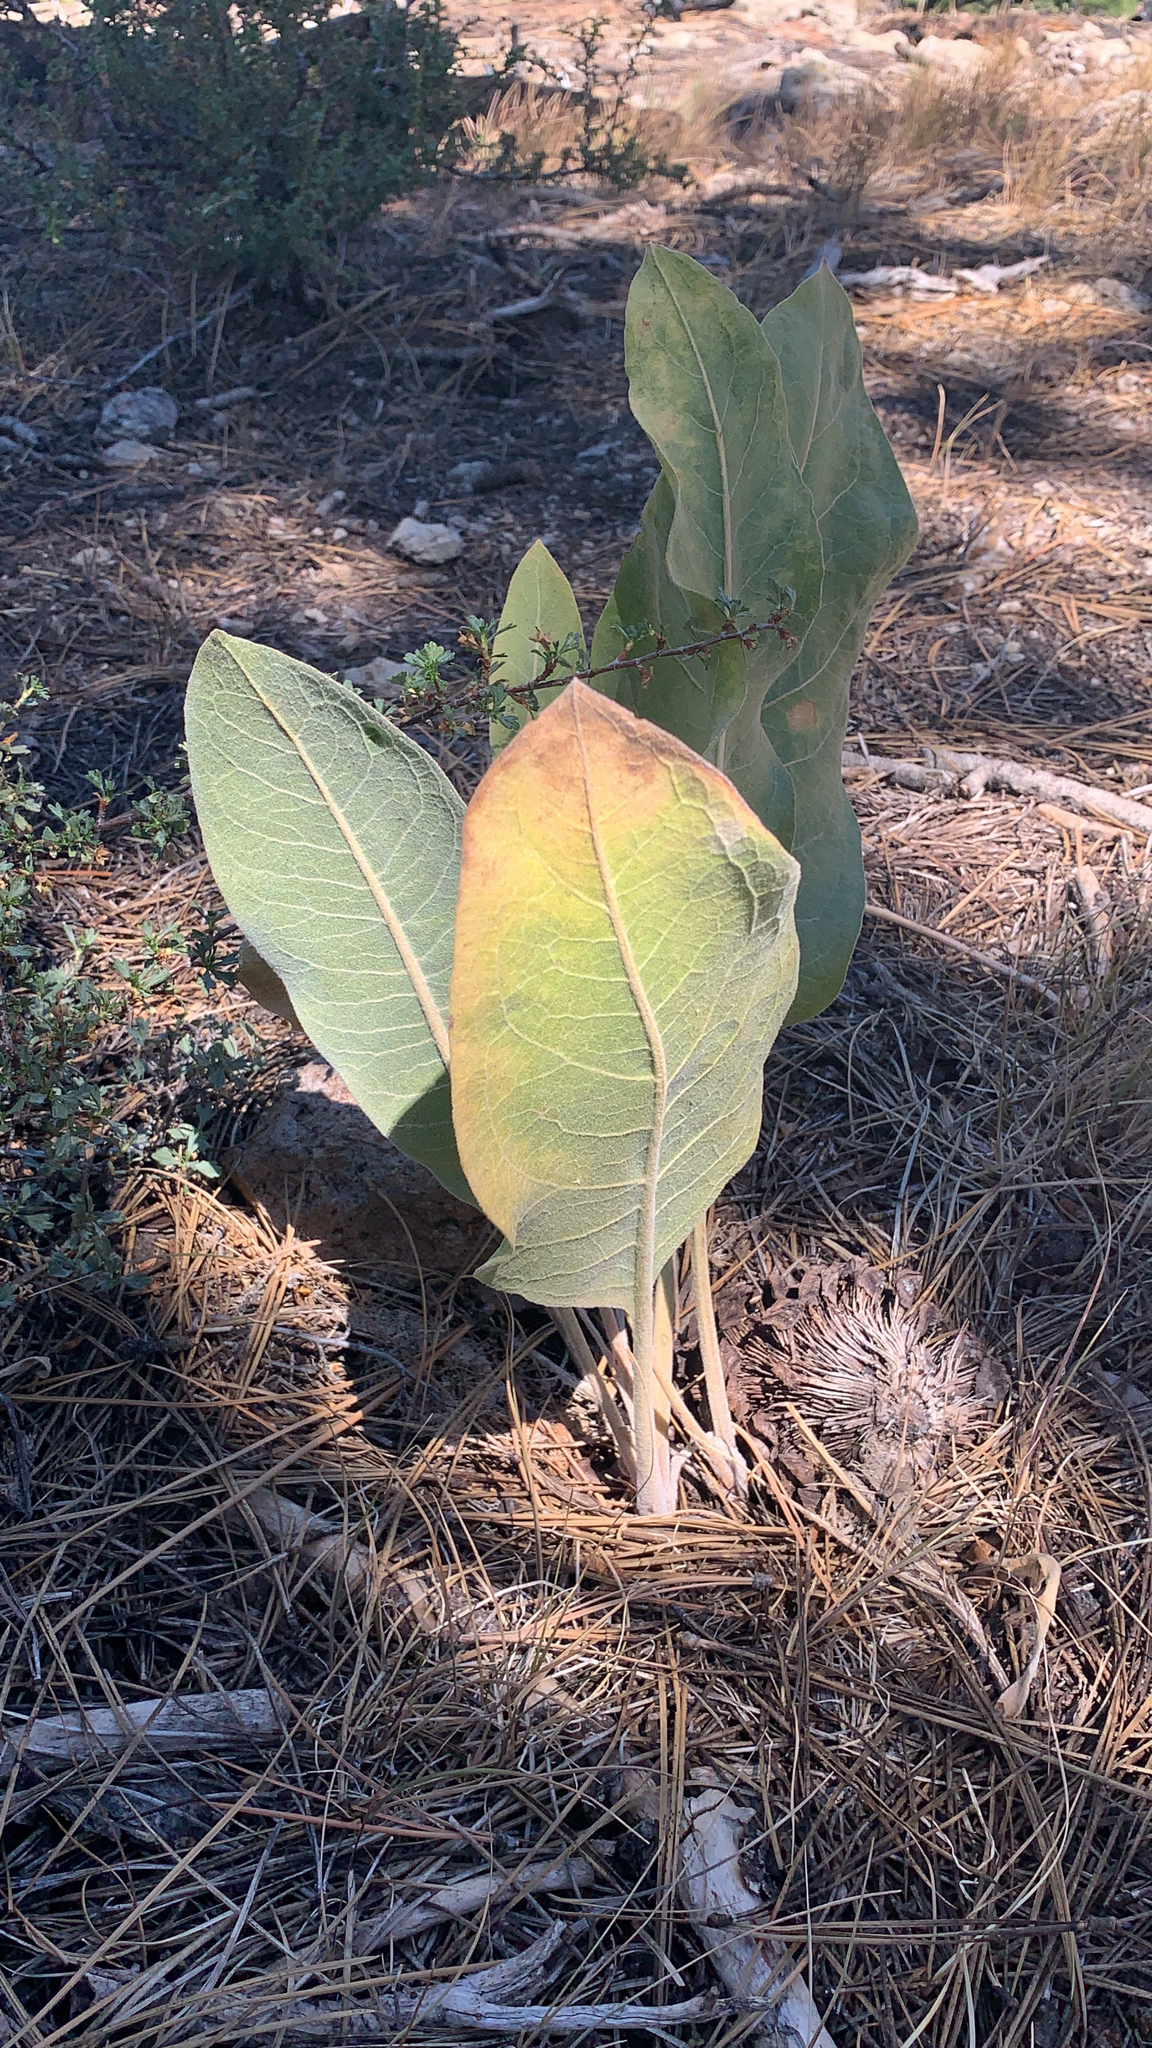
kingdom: Plantae
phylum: Tracheophyta
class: Magnoliopsida
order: Asterales
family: Asteraceae
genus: Wyethia
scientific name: Wyethia mollis
